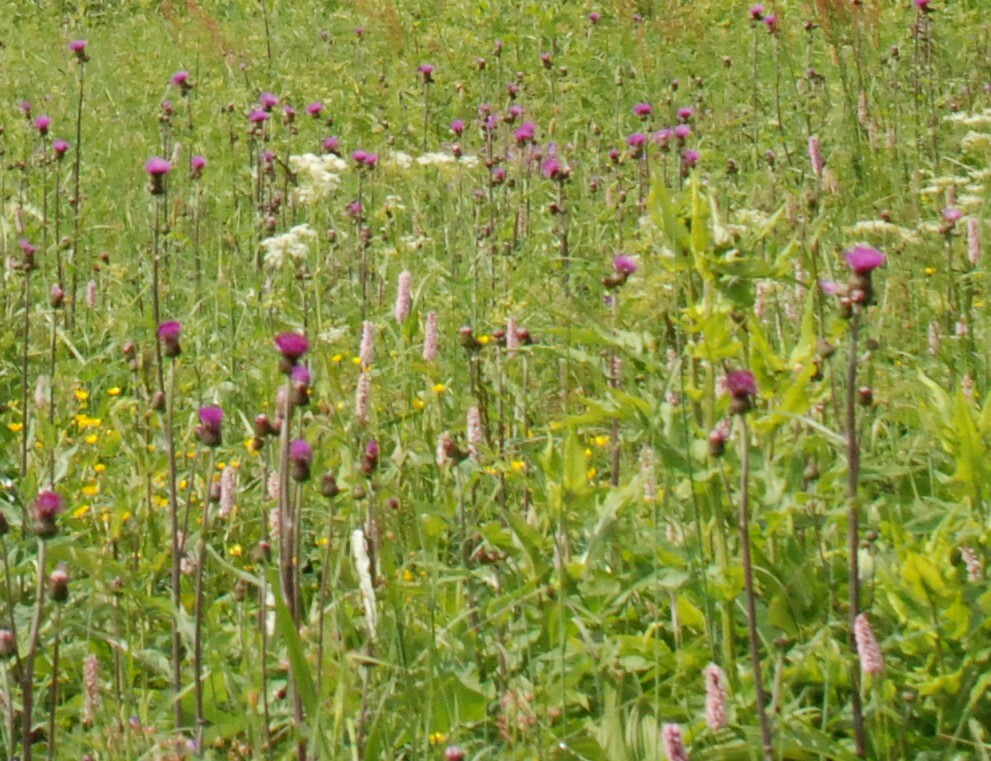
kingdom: Plantae
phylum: Tracheophyta
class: Magnoliopsida
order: Asterales
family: Asteraceae
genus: Cirsium
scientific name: Cirsium heterophyllum
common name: Melancholy thistle
